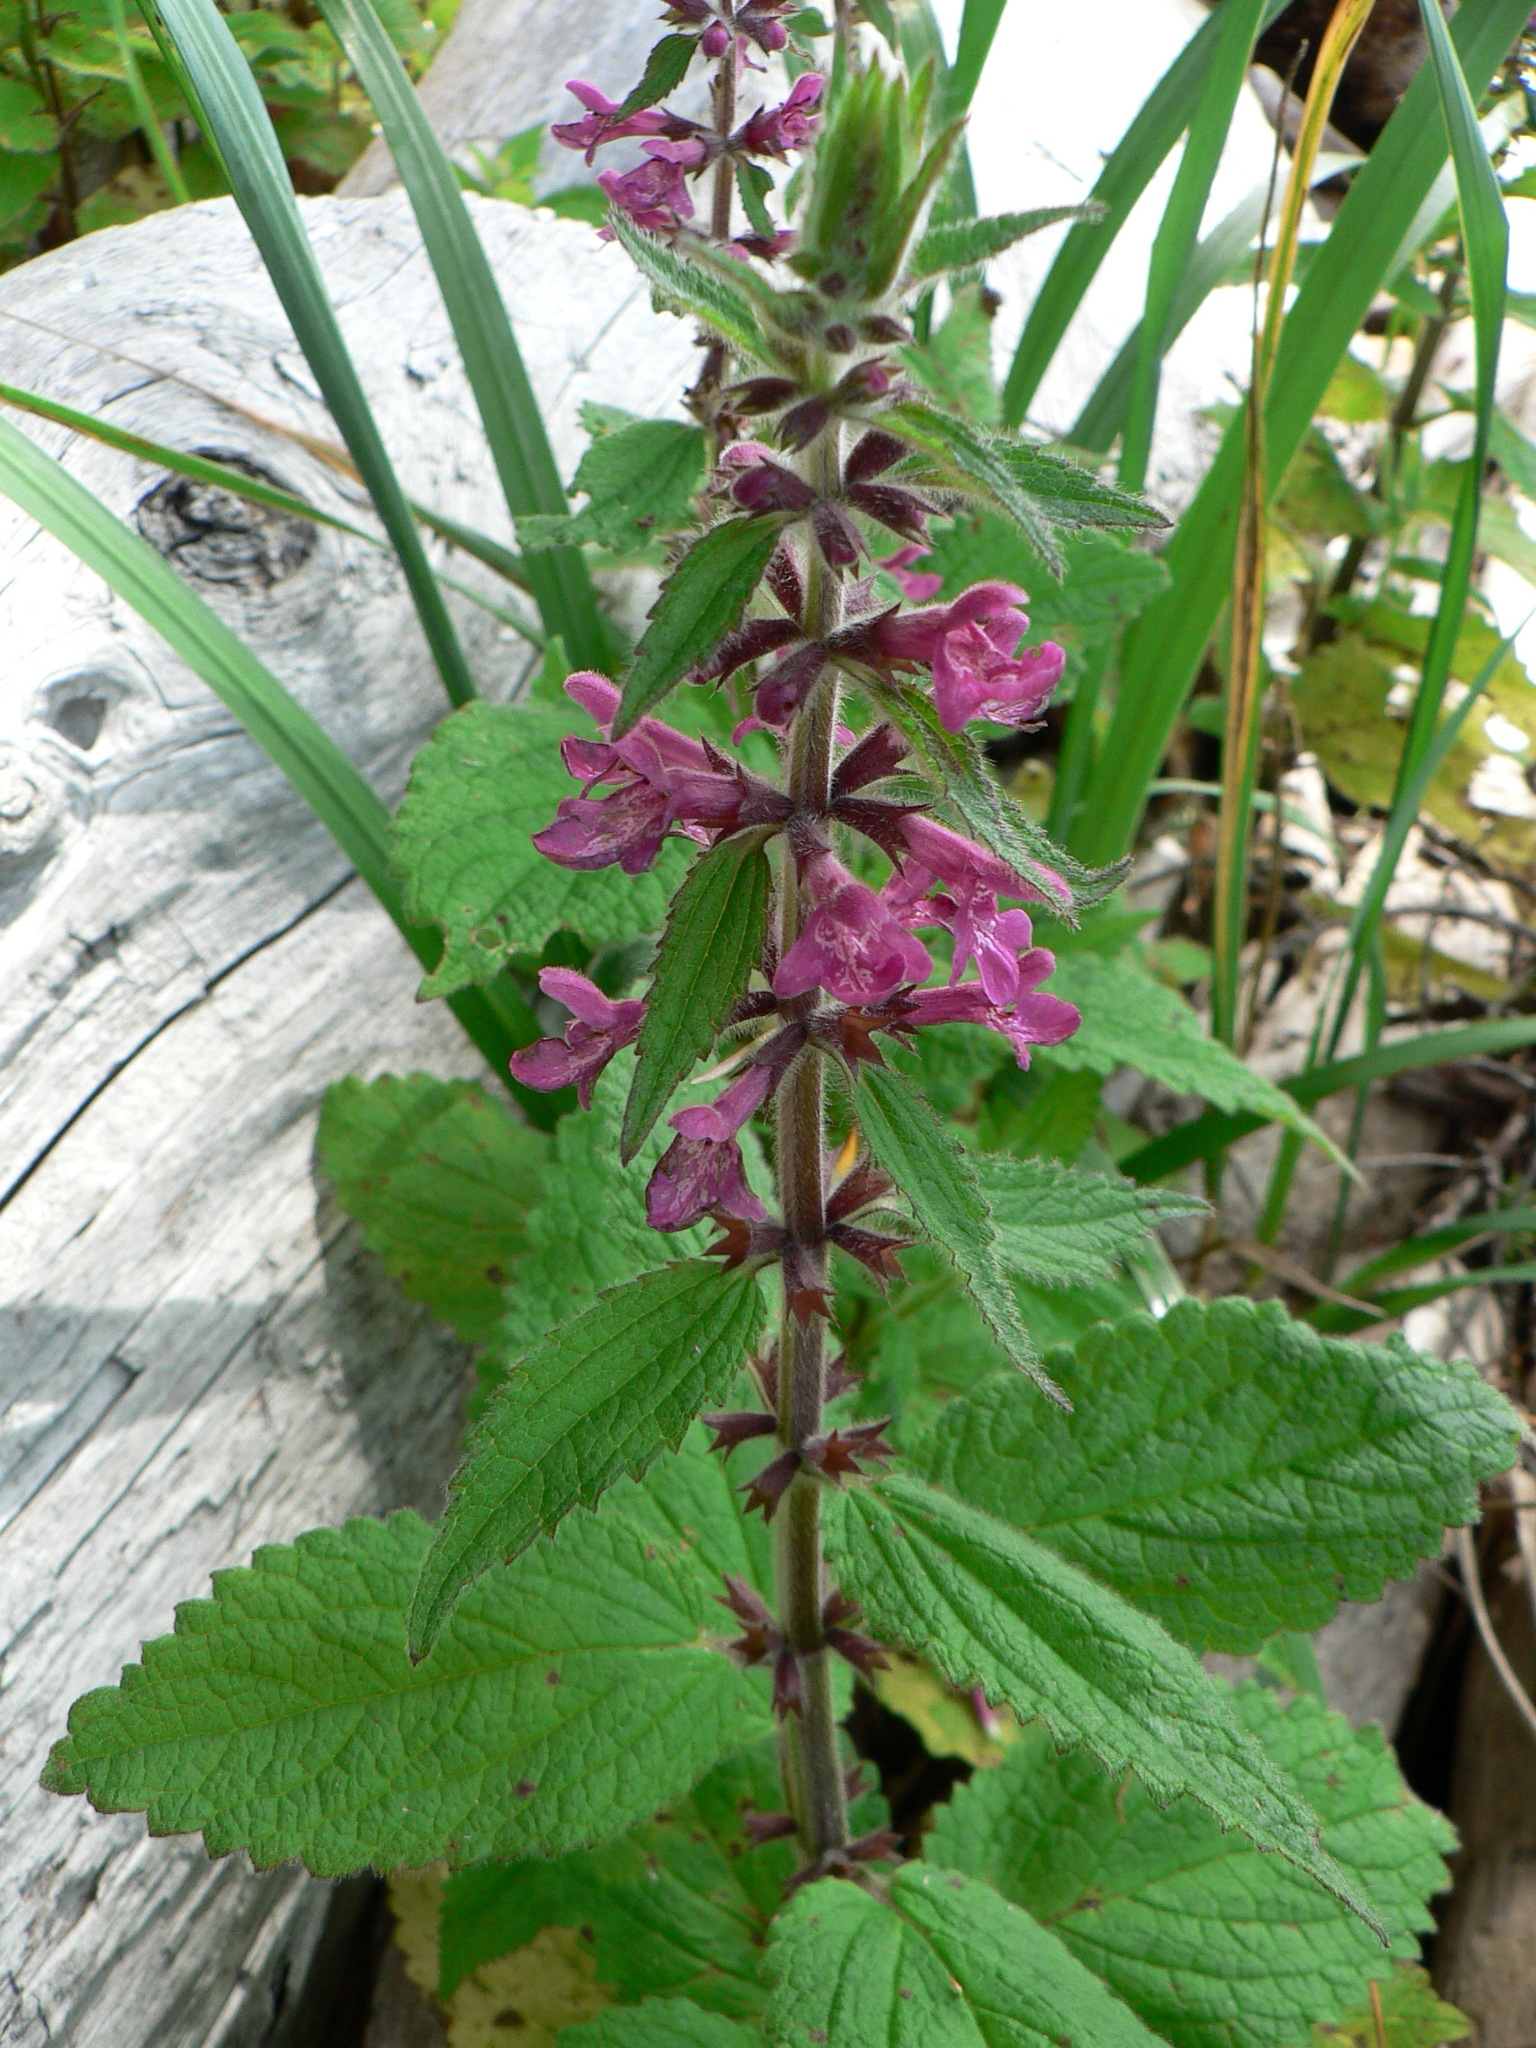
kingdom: Plantae
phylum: Tracheophyta
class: Magnoliopsida
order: Lamiales
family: Lamiaceae
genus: Stachys
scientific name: Stachys chamissonis
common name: Coastal hedge-nettle
